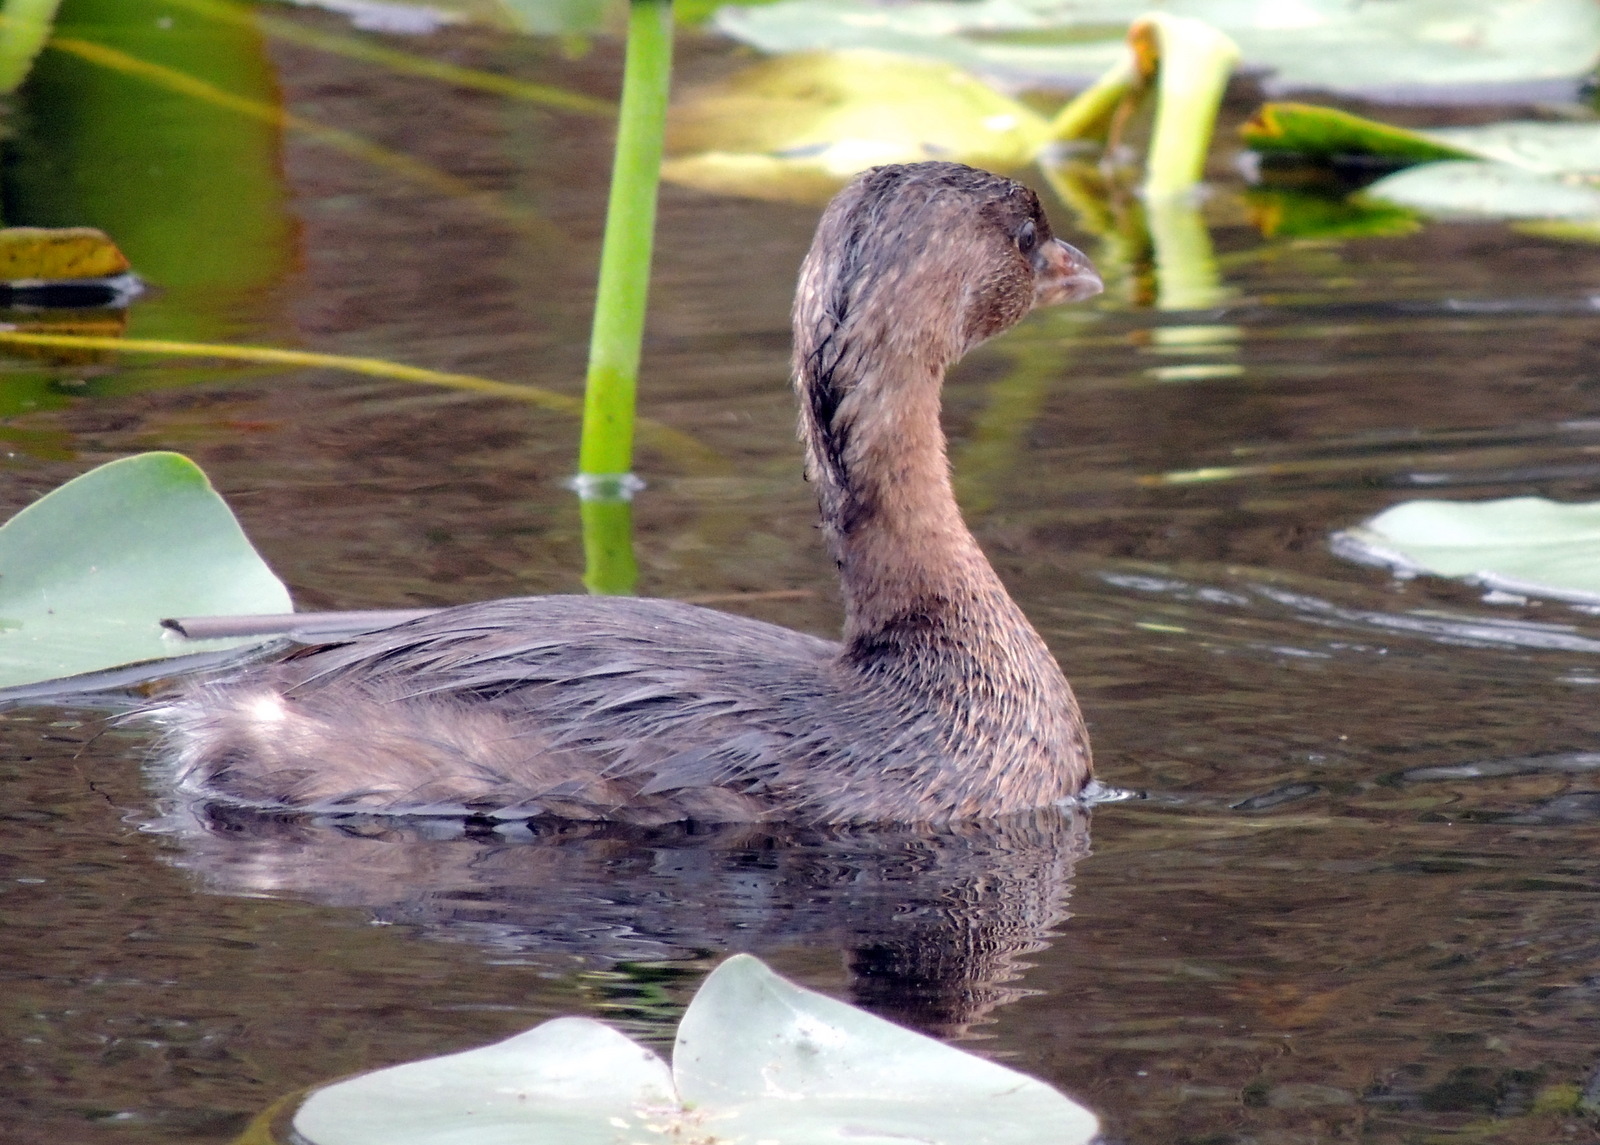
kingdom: Animalia
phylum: Chordata
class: Aves
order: Podicipediformes
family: Podicipedidae
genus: Podilymbus
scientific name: Podilymbus podiceps
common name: Pied-billed grebe
